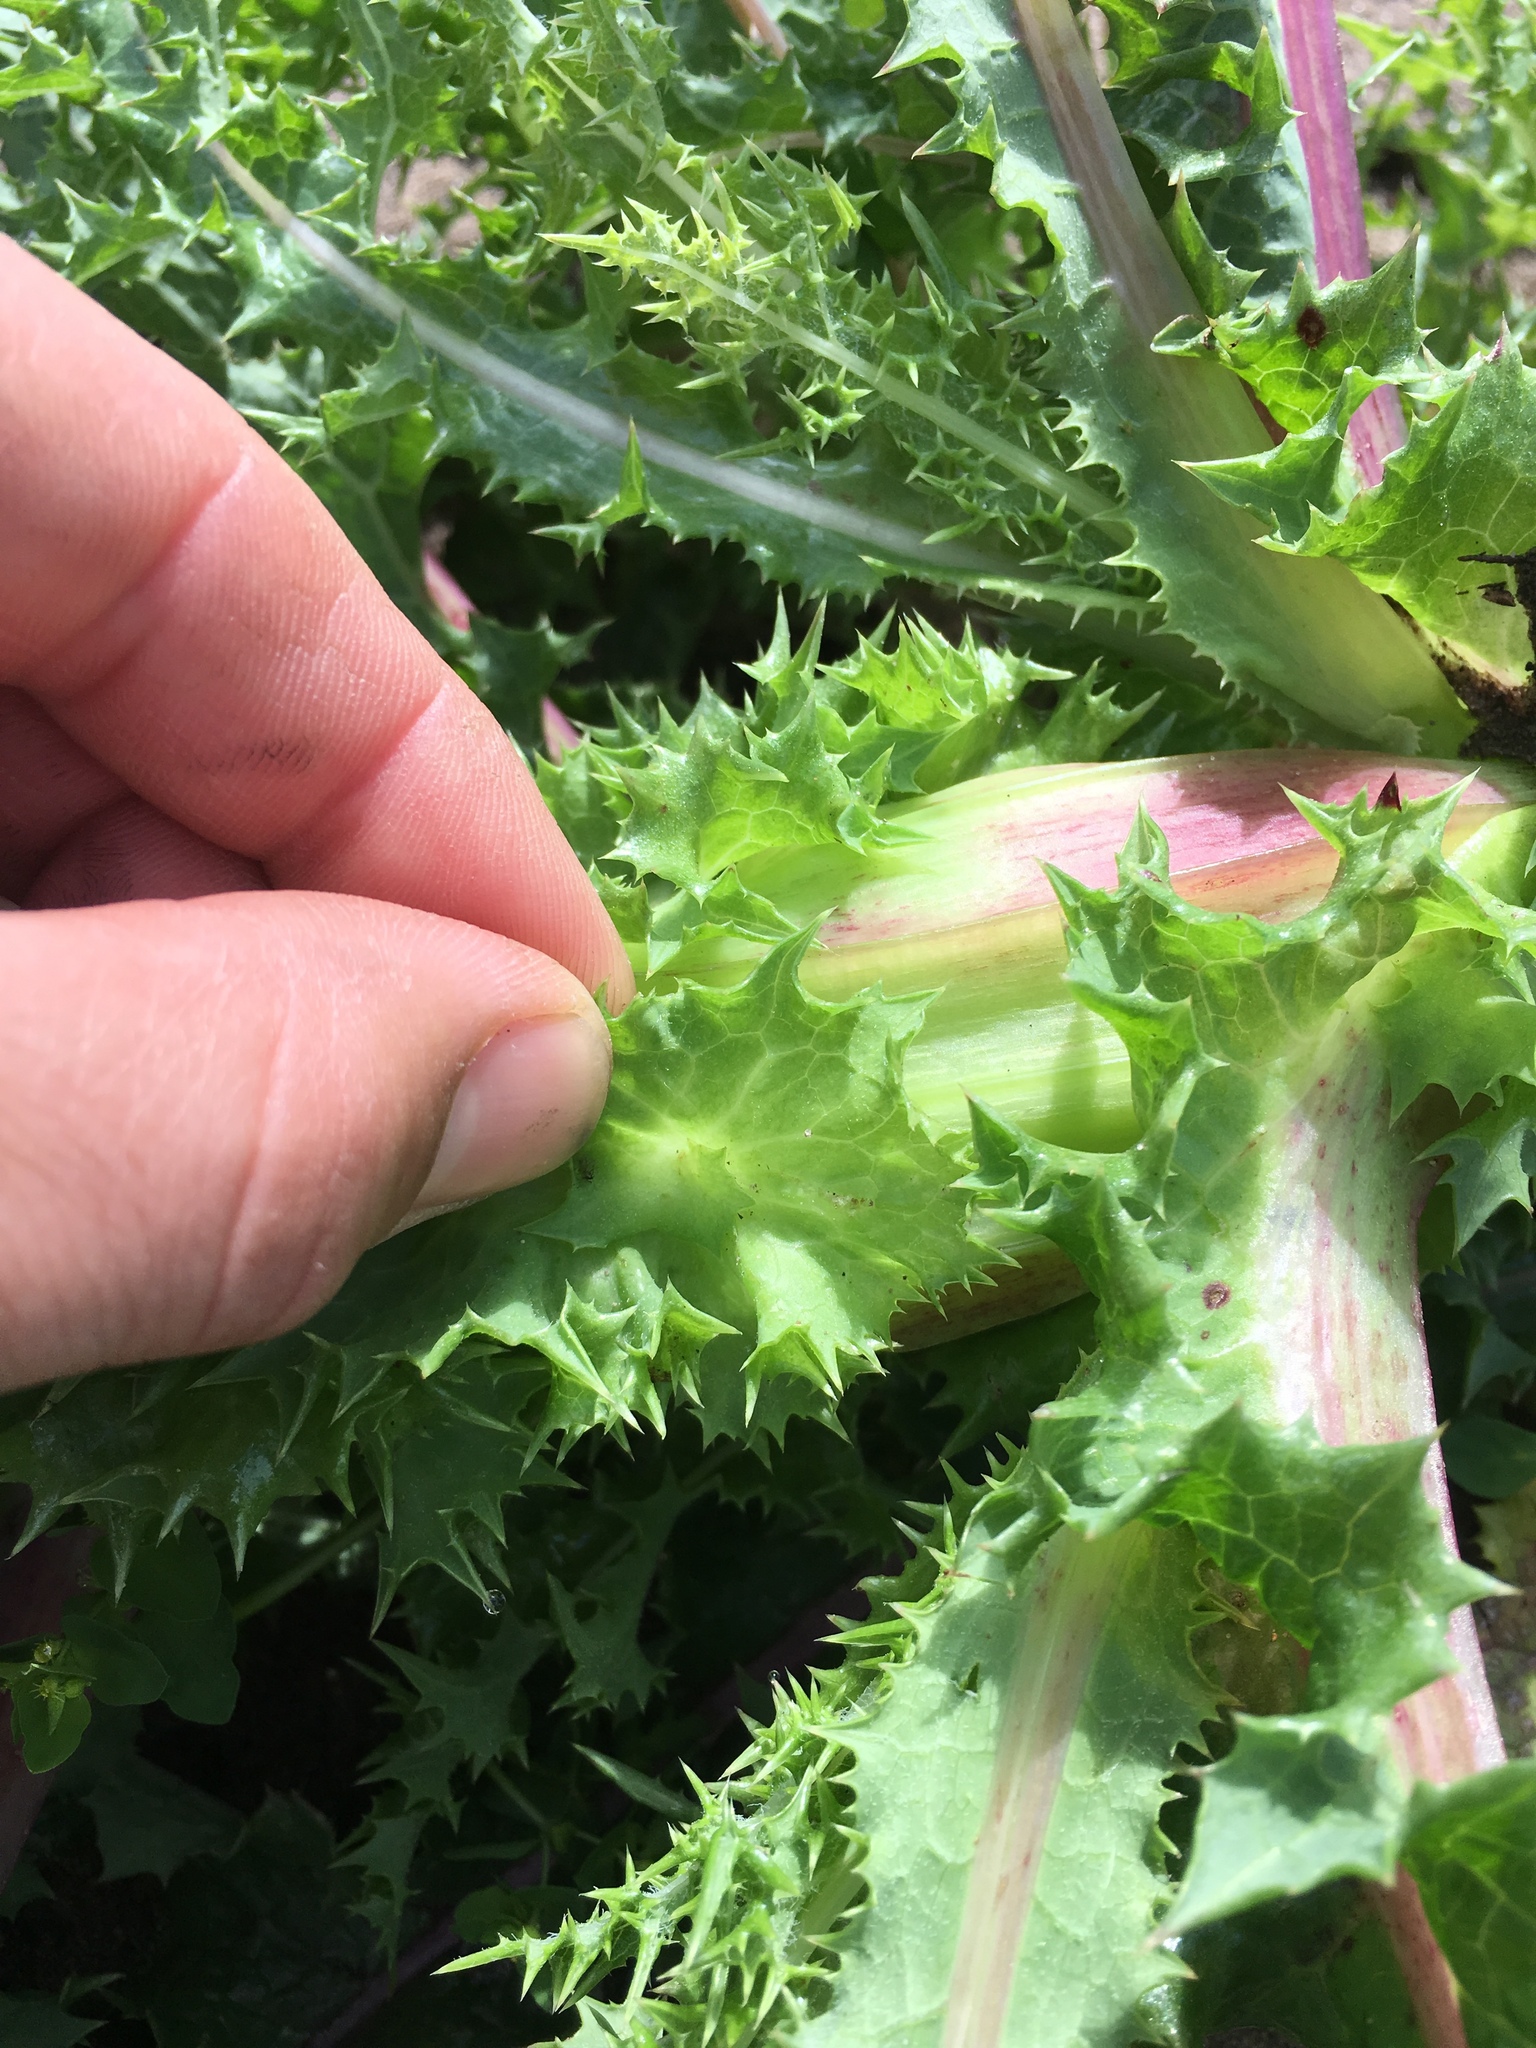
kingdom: Plantae
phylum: Tracheophyta
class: Magnoliopsida
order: Asterales
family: Asteraceae
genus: Sonchus
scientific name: Sonchus asper
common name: Prickly sow-thistle
